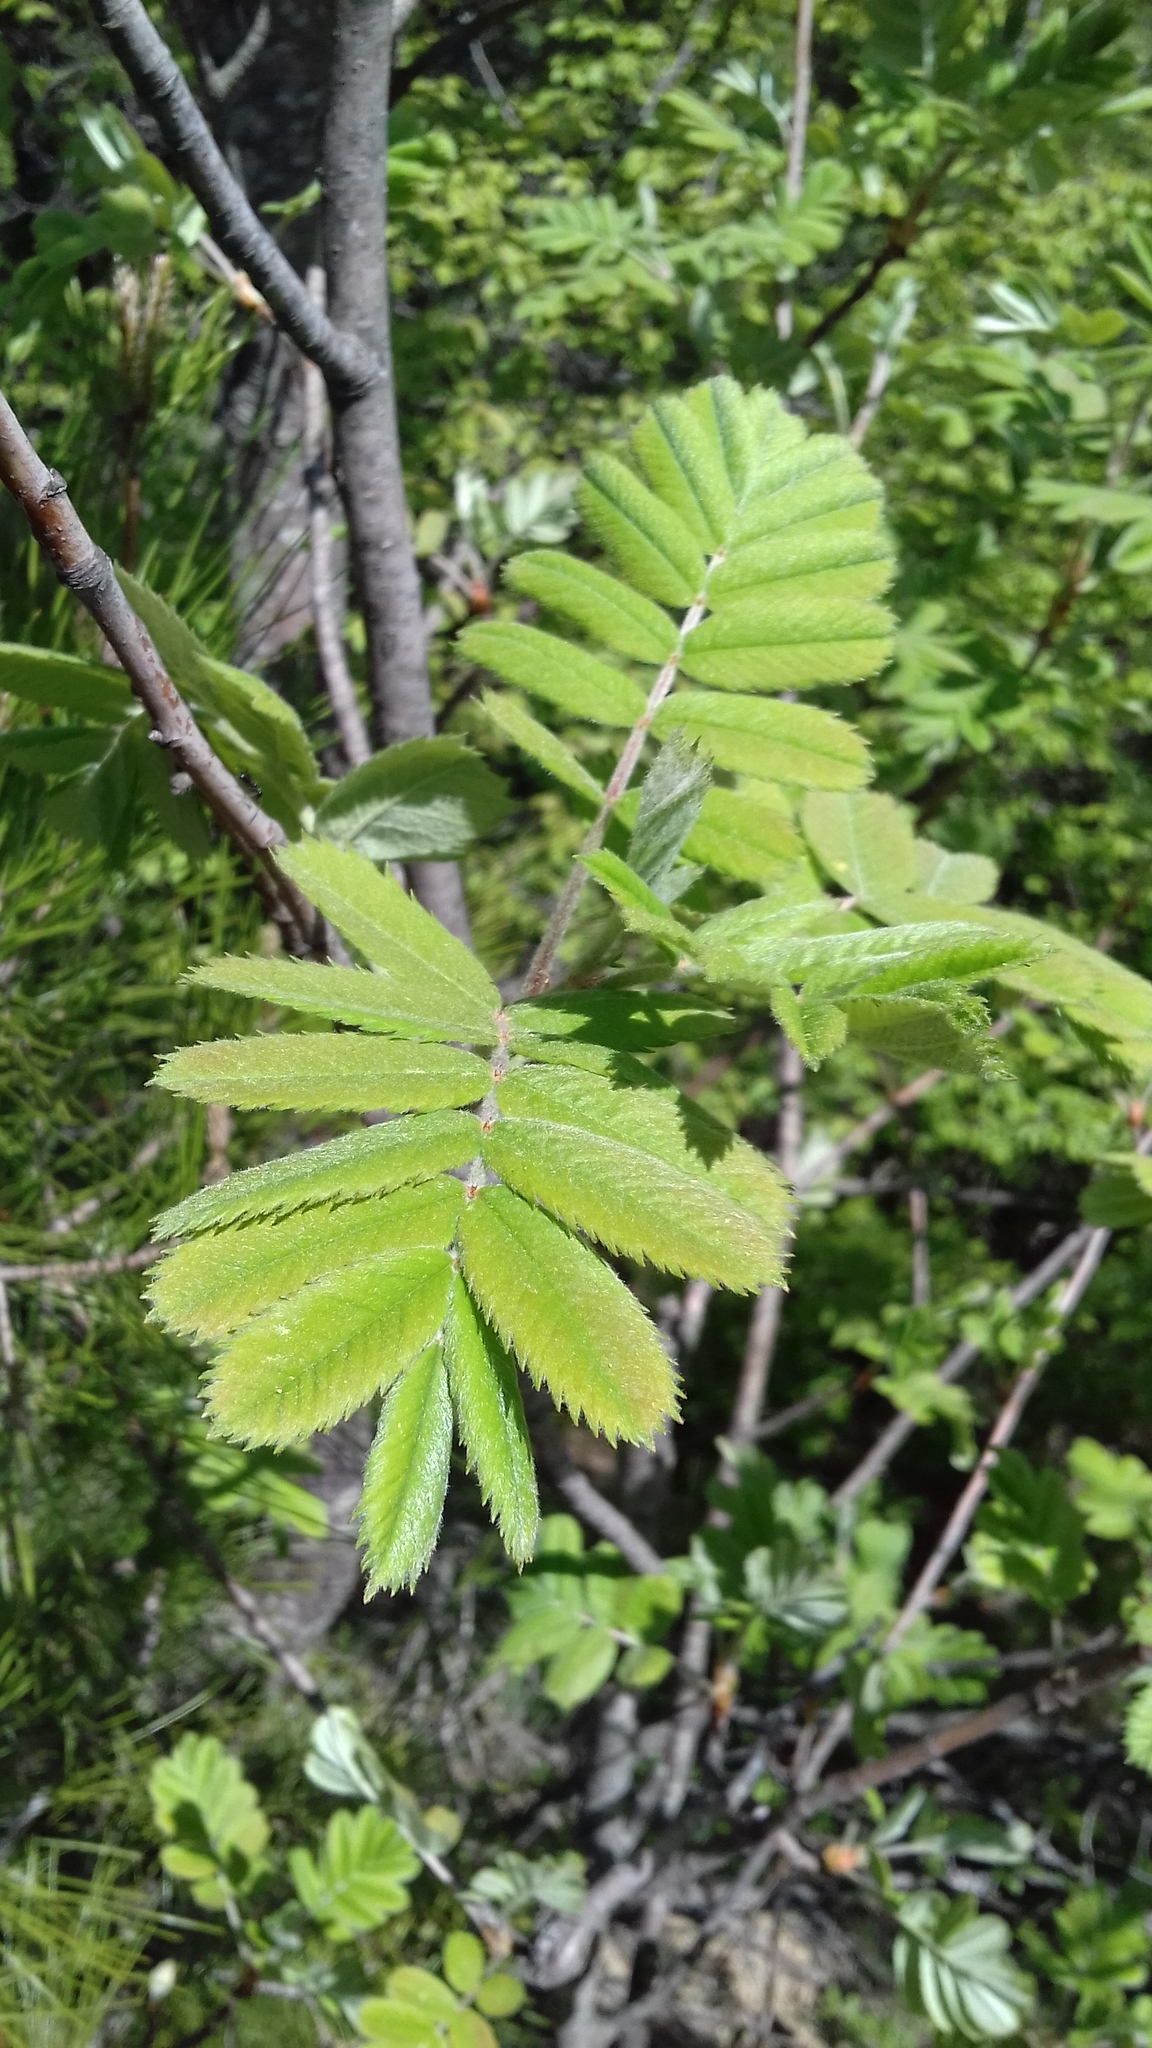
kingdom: Plantae
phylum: Tracheophyta
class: Magnoliopsida
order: Rosales
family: Rosaceae
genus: Sorbus
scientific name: Sorbus aucuparia
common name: Rowan
